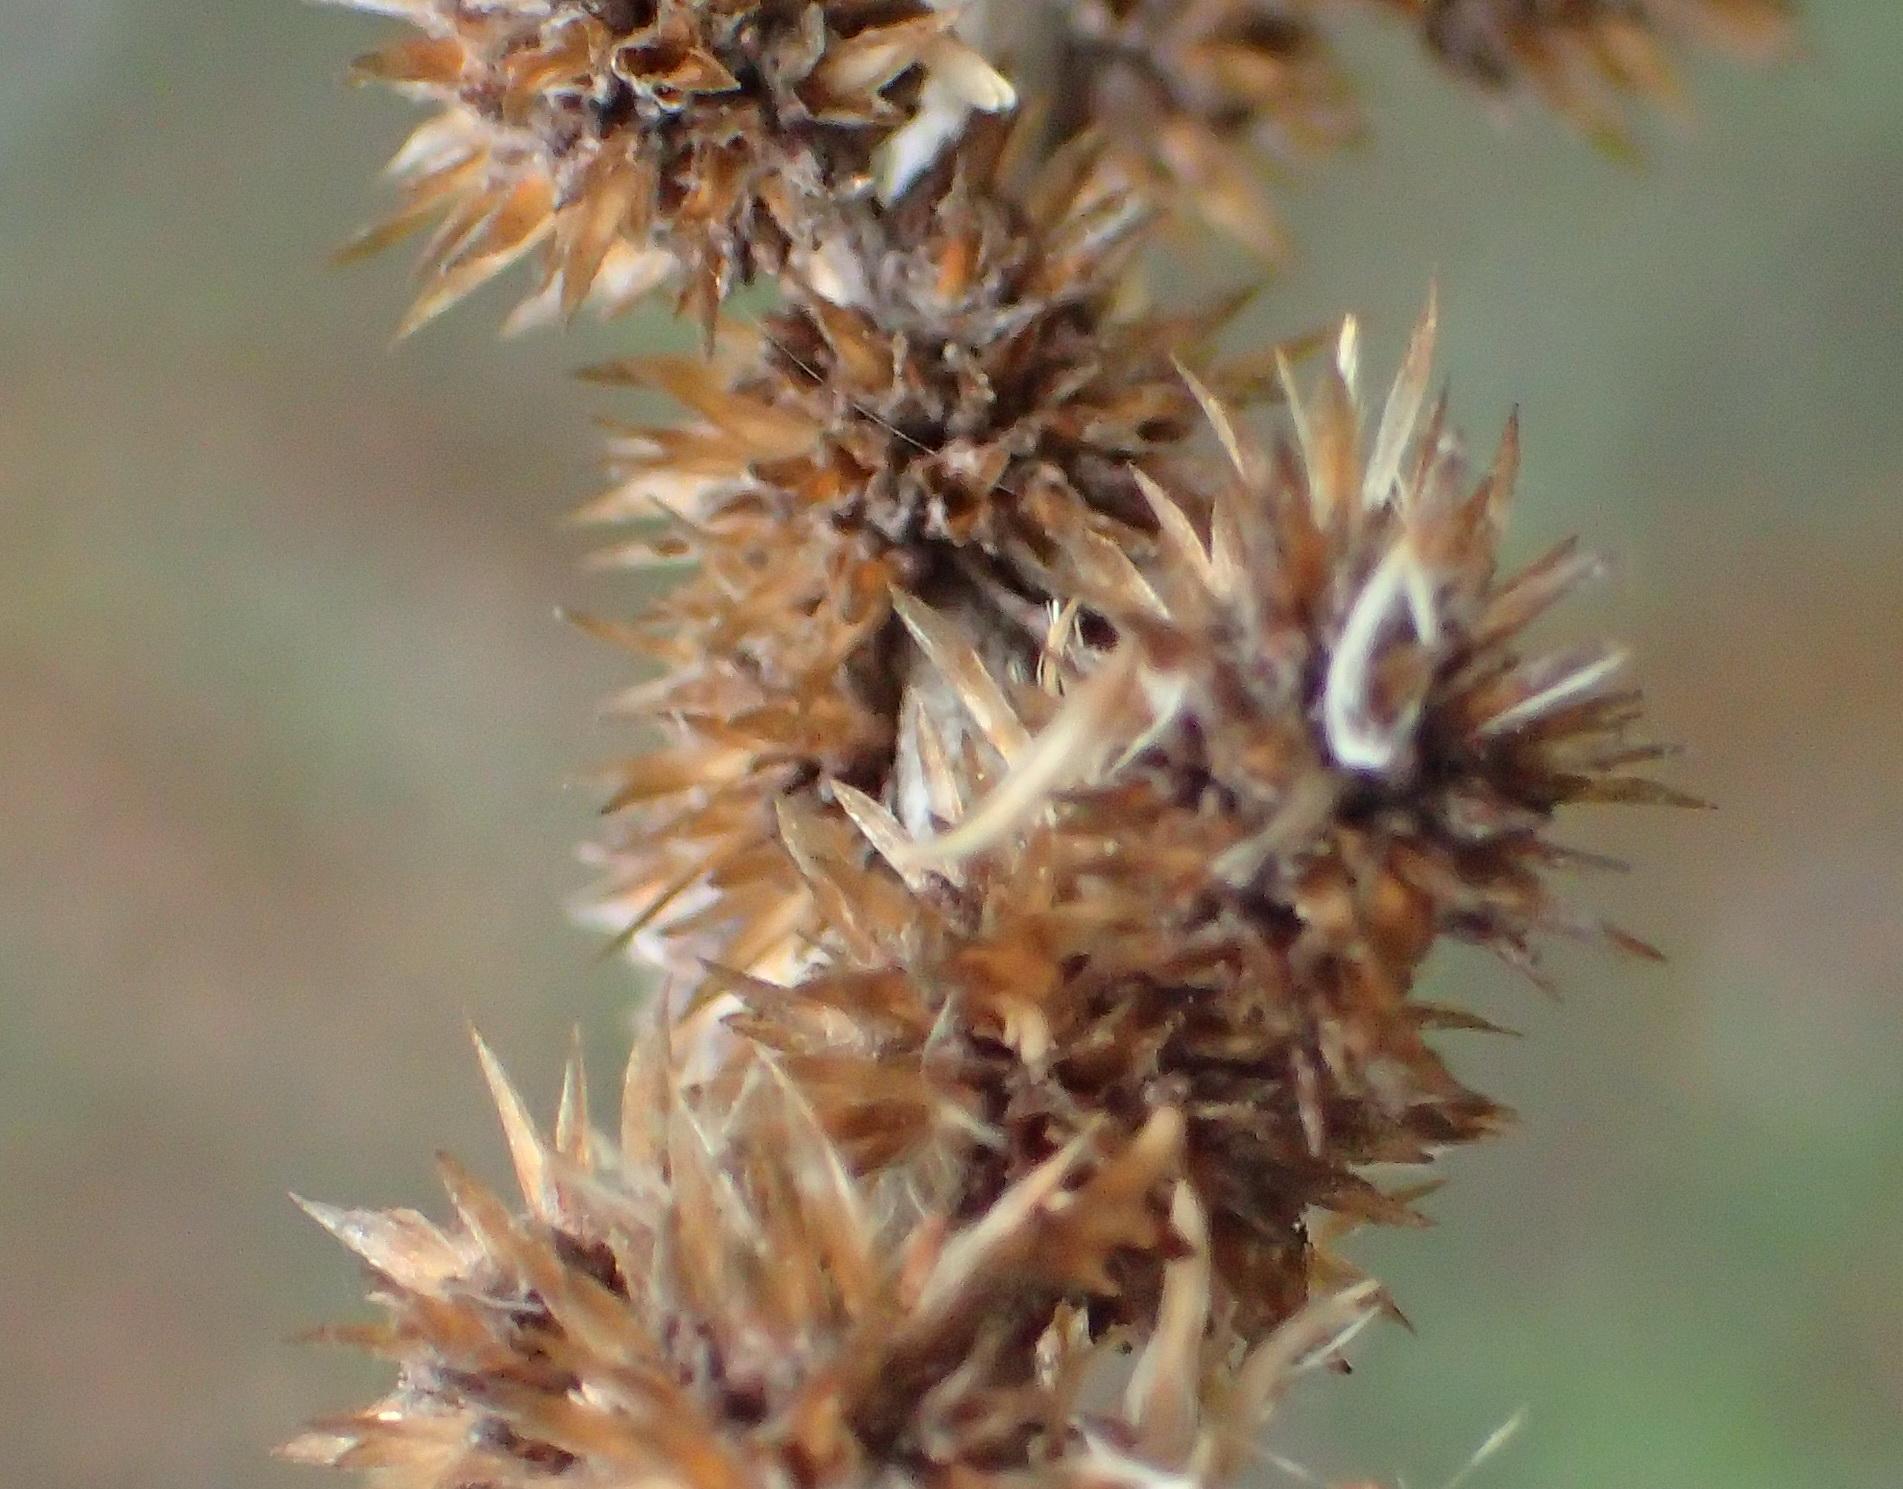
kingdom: Plantae
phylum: Tracheophyta
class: Magnoliopsida
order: Asterales
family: Asteraceae
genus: Seriphium
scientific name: Seriphium plumosum
